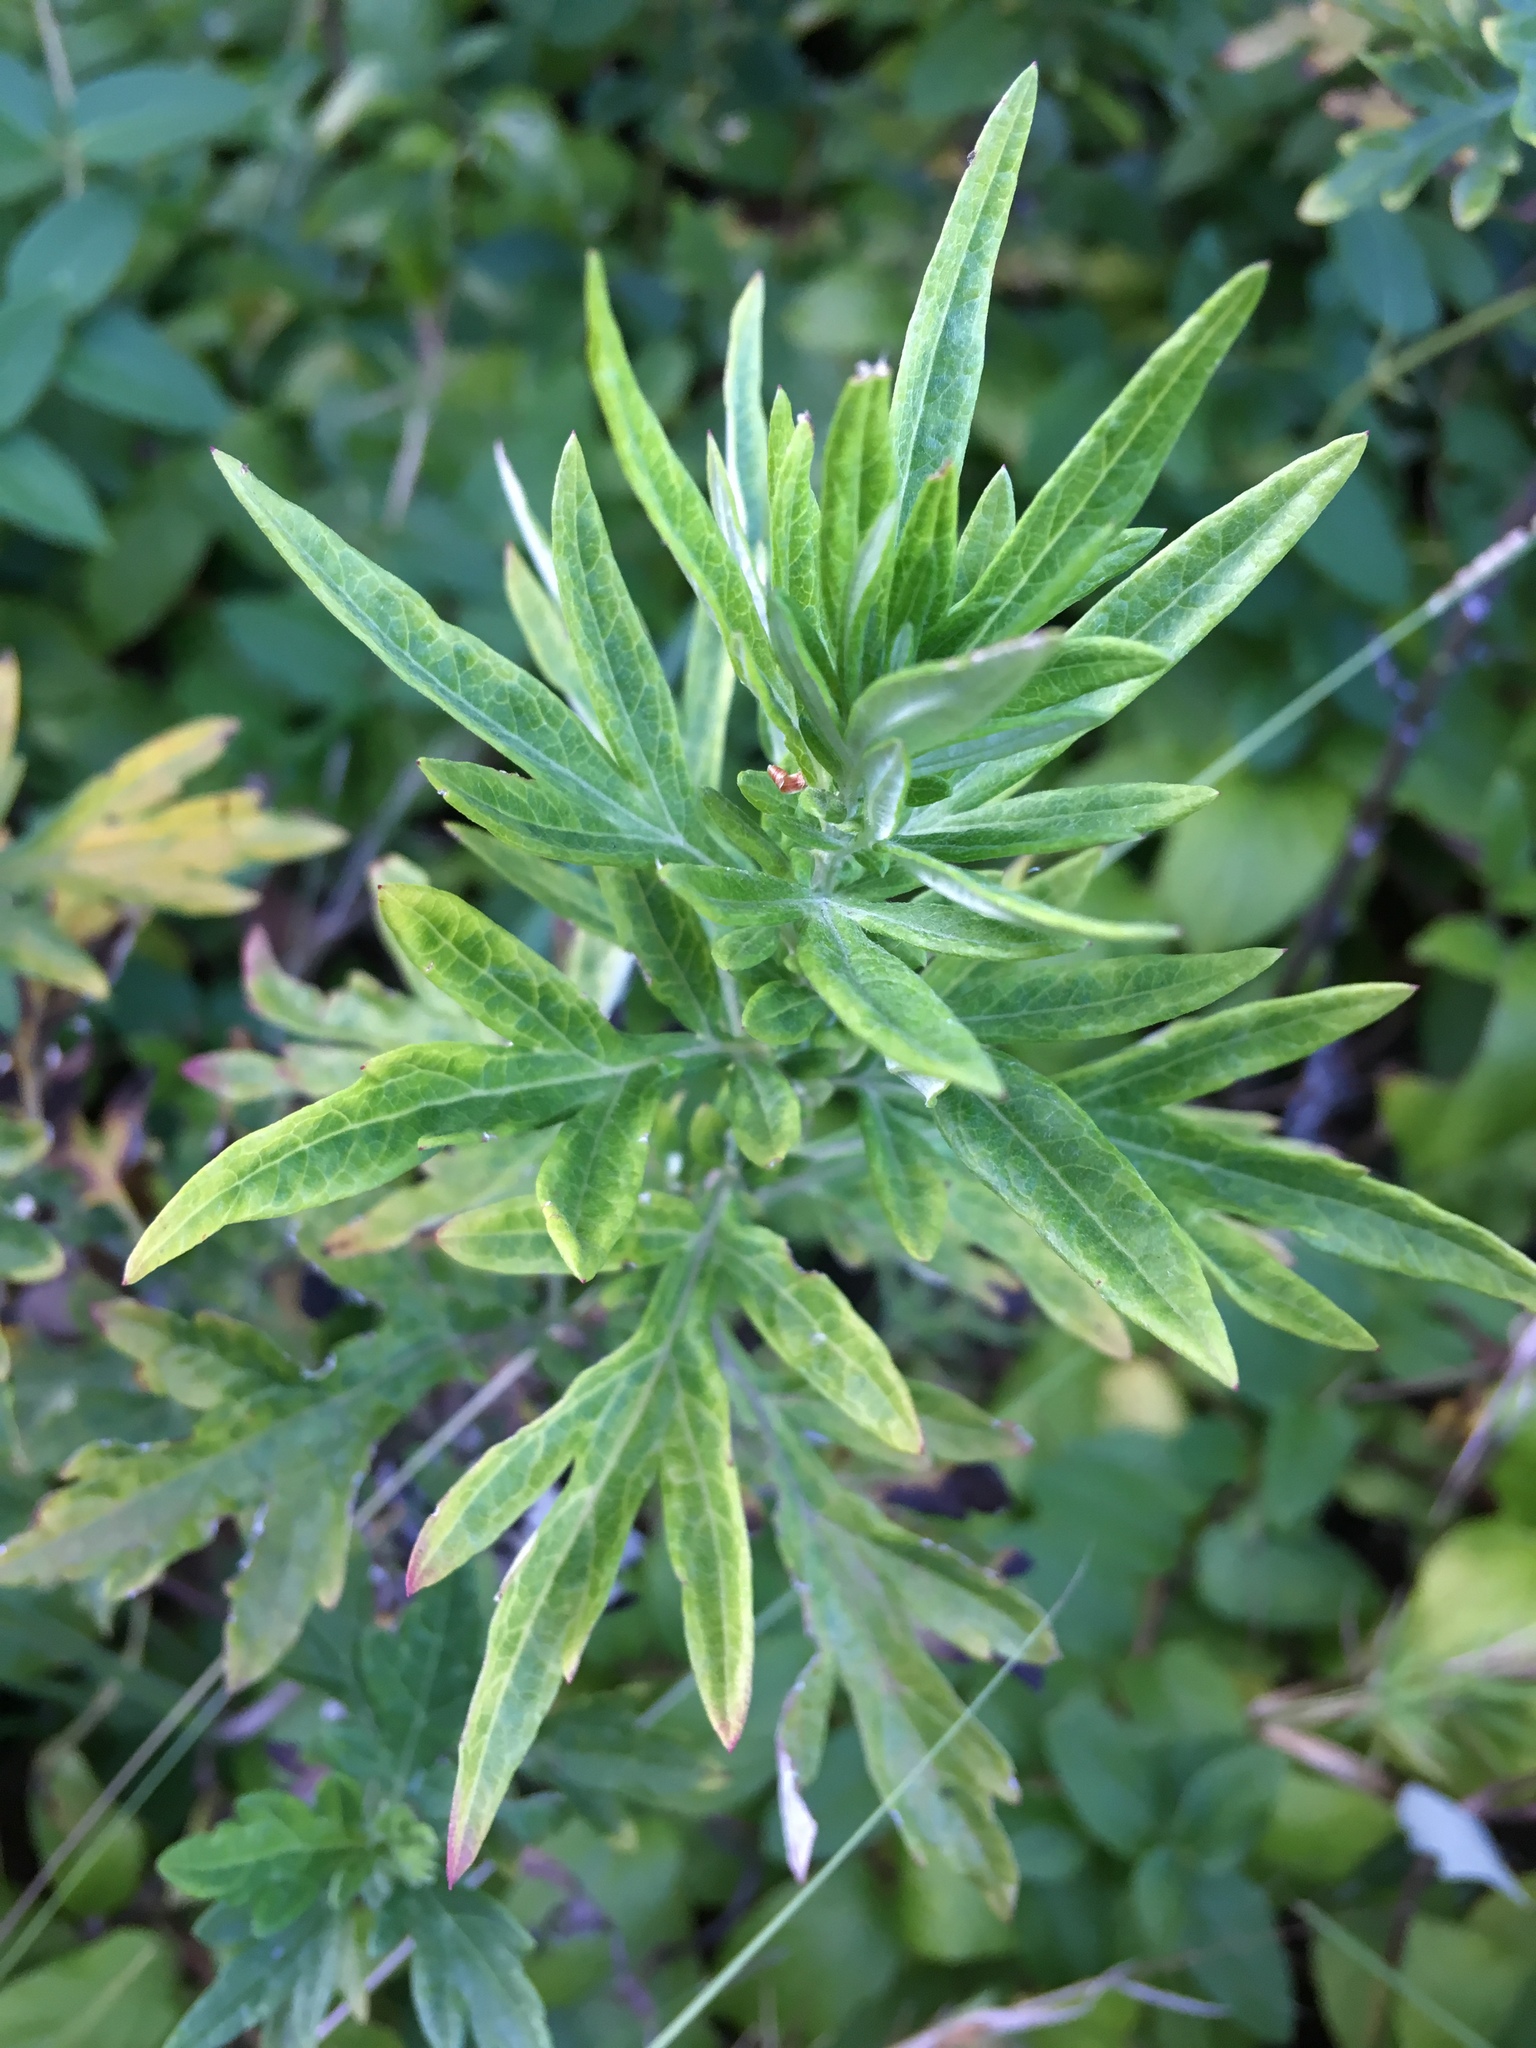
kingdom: Plantae
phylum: Tracheophyta
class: Magnoliopsida
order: Asterales
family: Asteraceae
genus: Artemisia
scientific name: Artemisia vulgaris
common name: Mugwort
